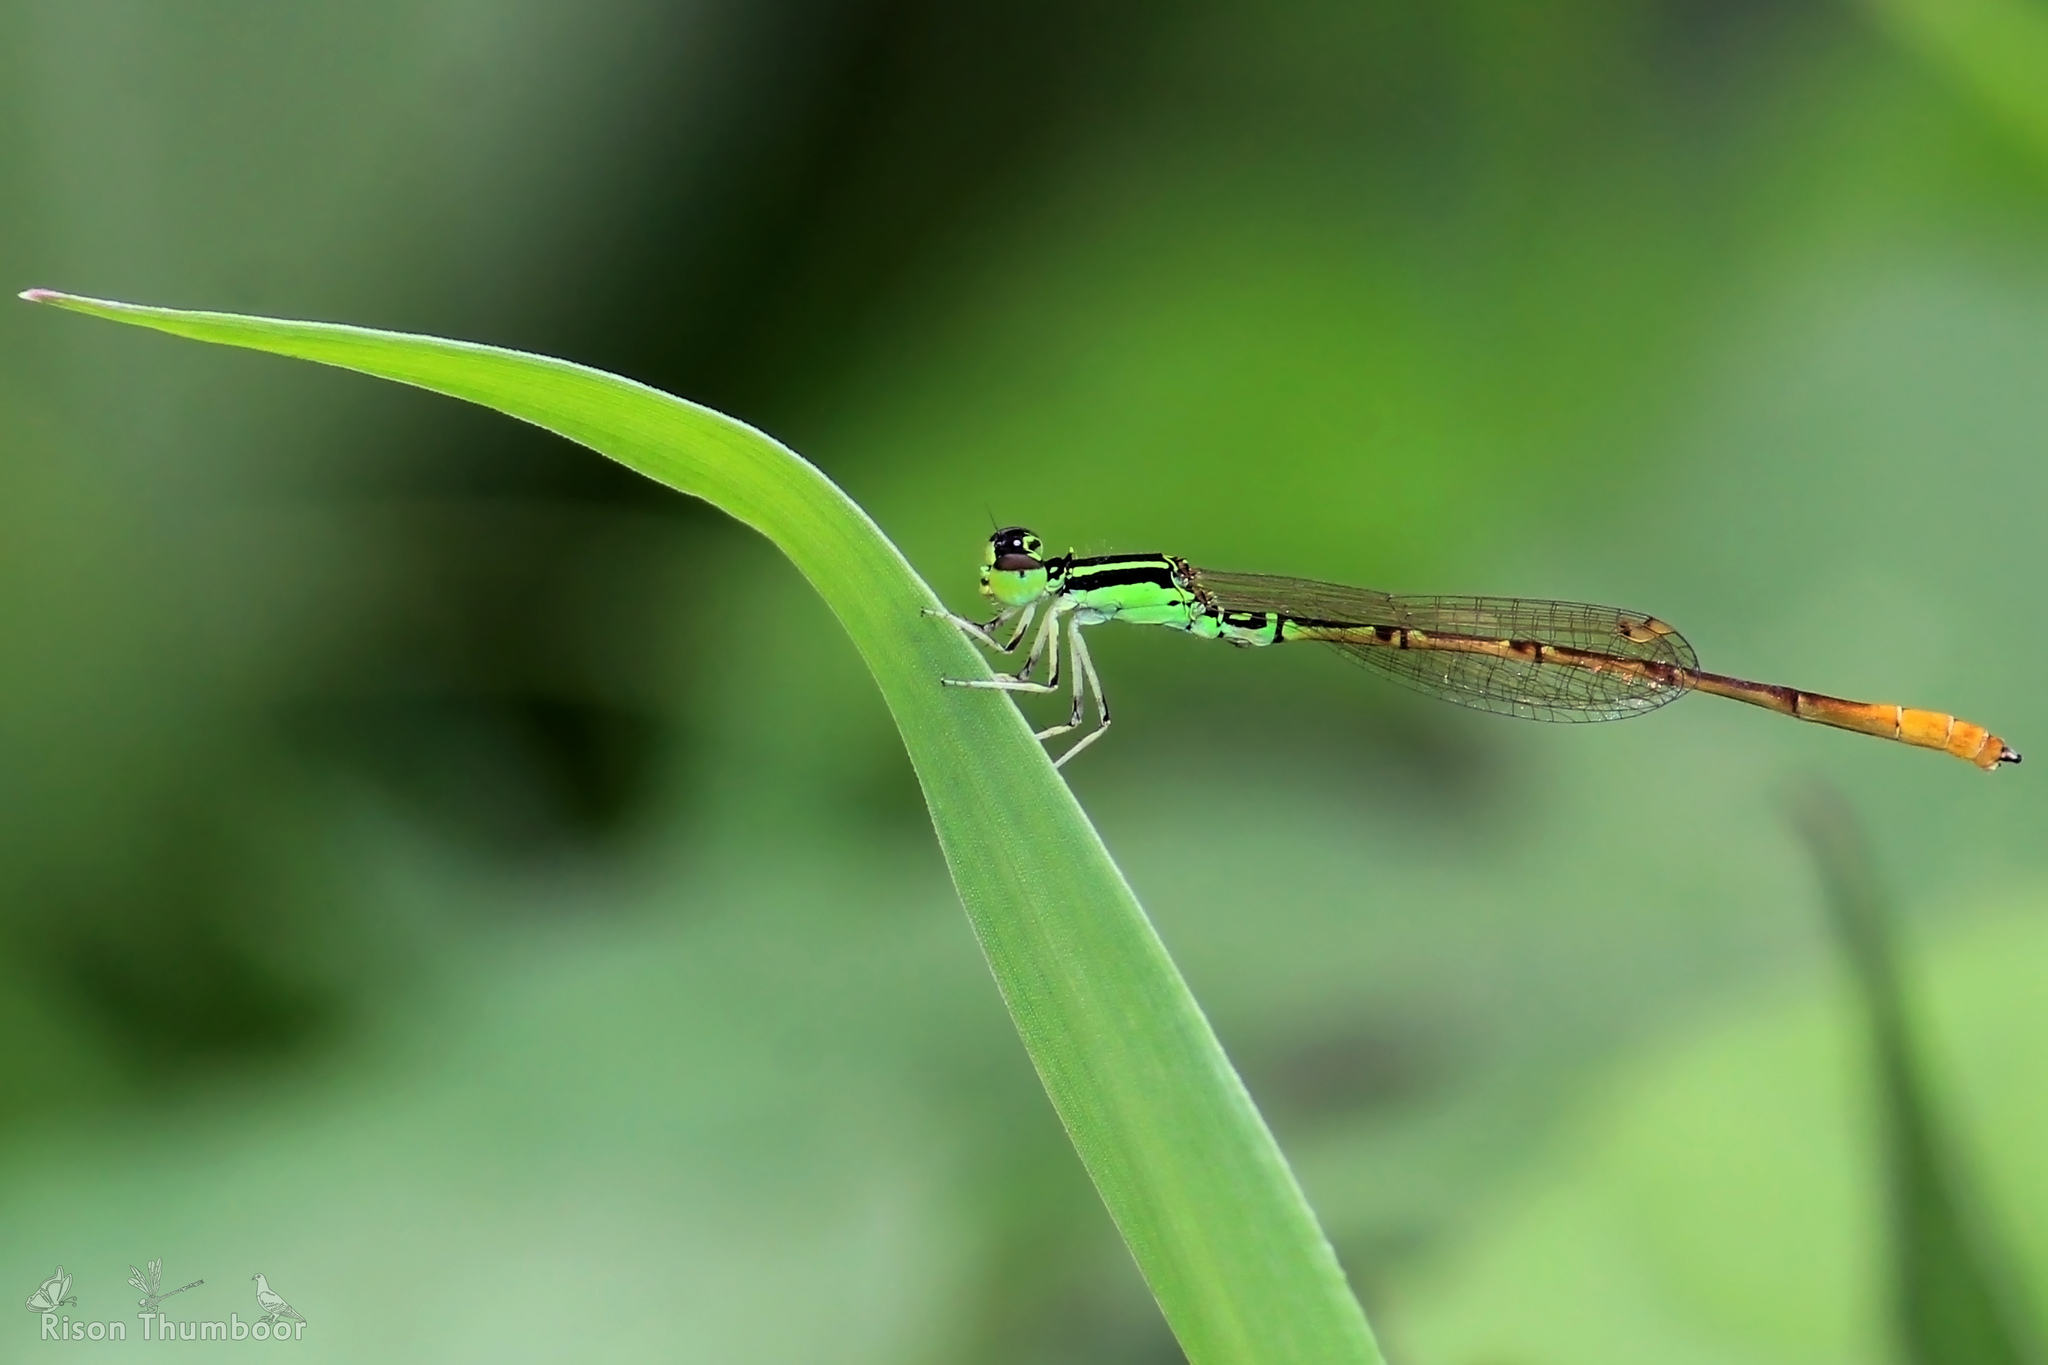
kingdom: Animalia
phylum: Arthropoda
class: Insecta
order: Odonata
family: Coenagrionidae
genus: Agriocnemis
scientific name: Agriocnemis keralensis
